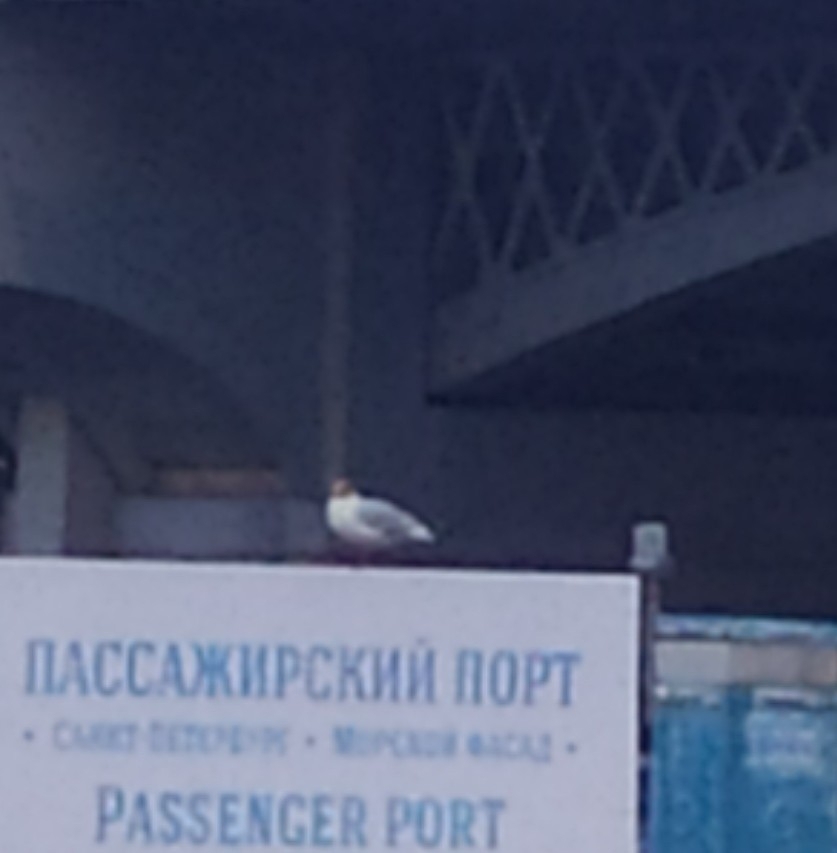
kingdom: Animalia
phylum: Chordata
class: Aves
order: Charadriiformes
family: Laridae
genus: Chroicocephalus
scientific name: Chroicocephalus ridibundus
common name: Black-headed gull
